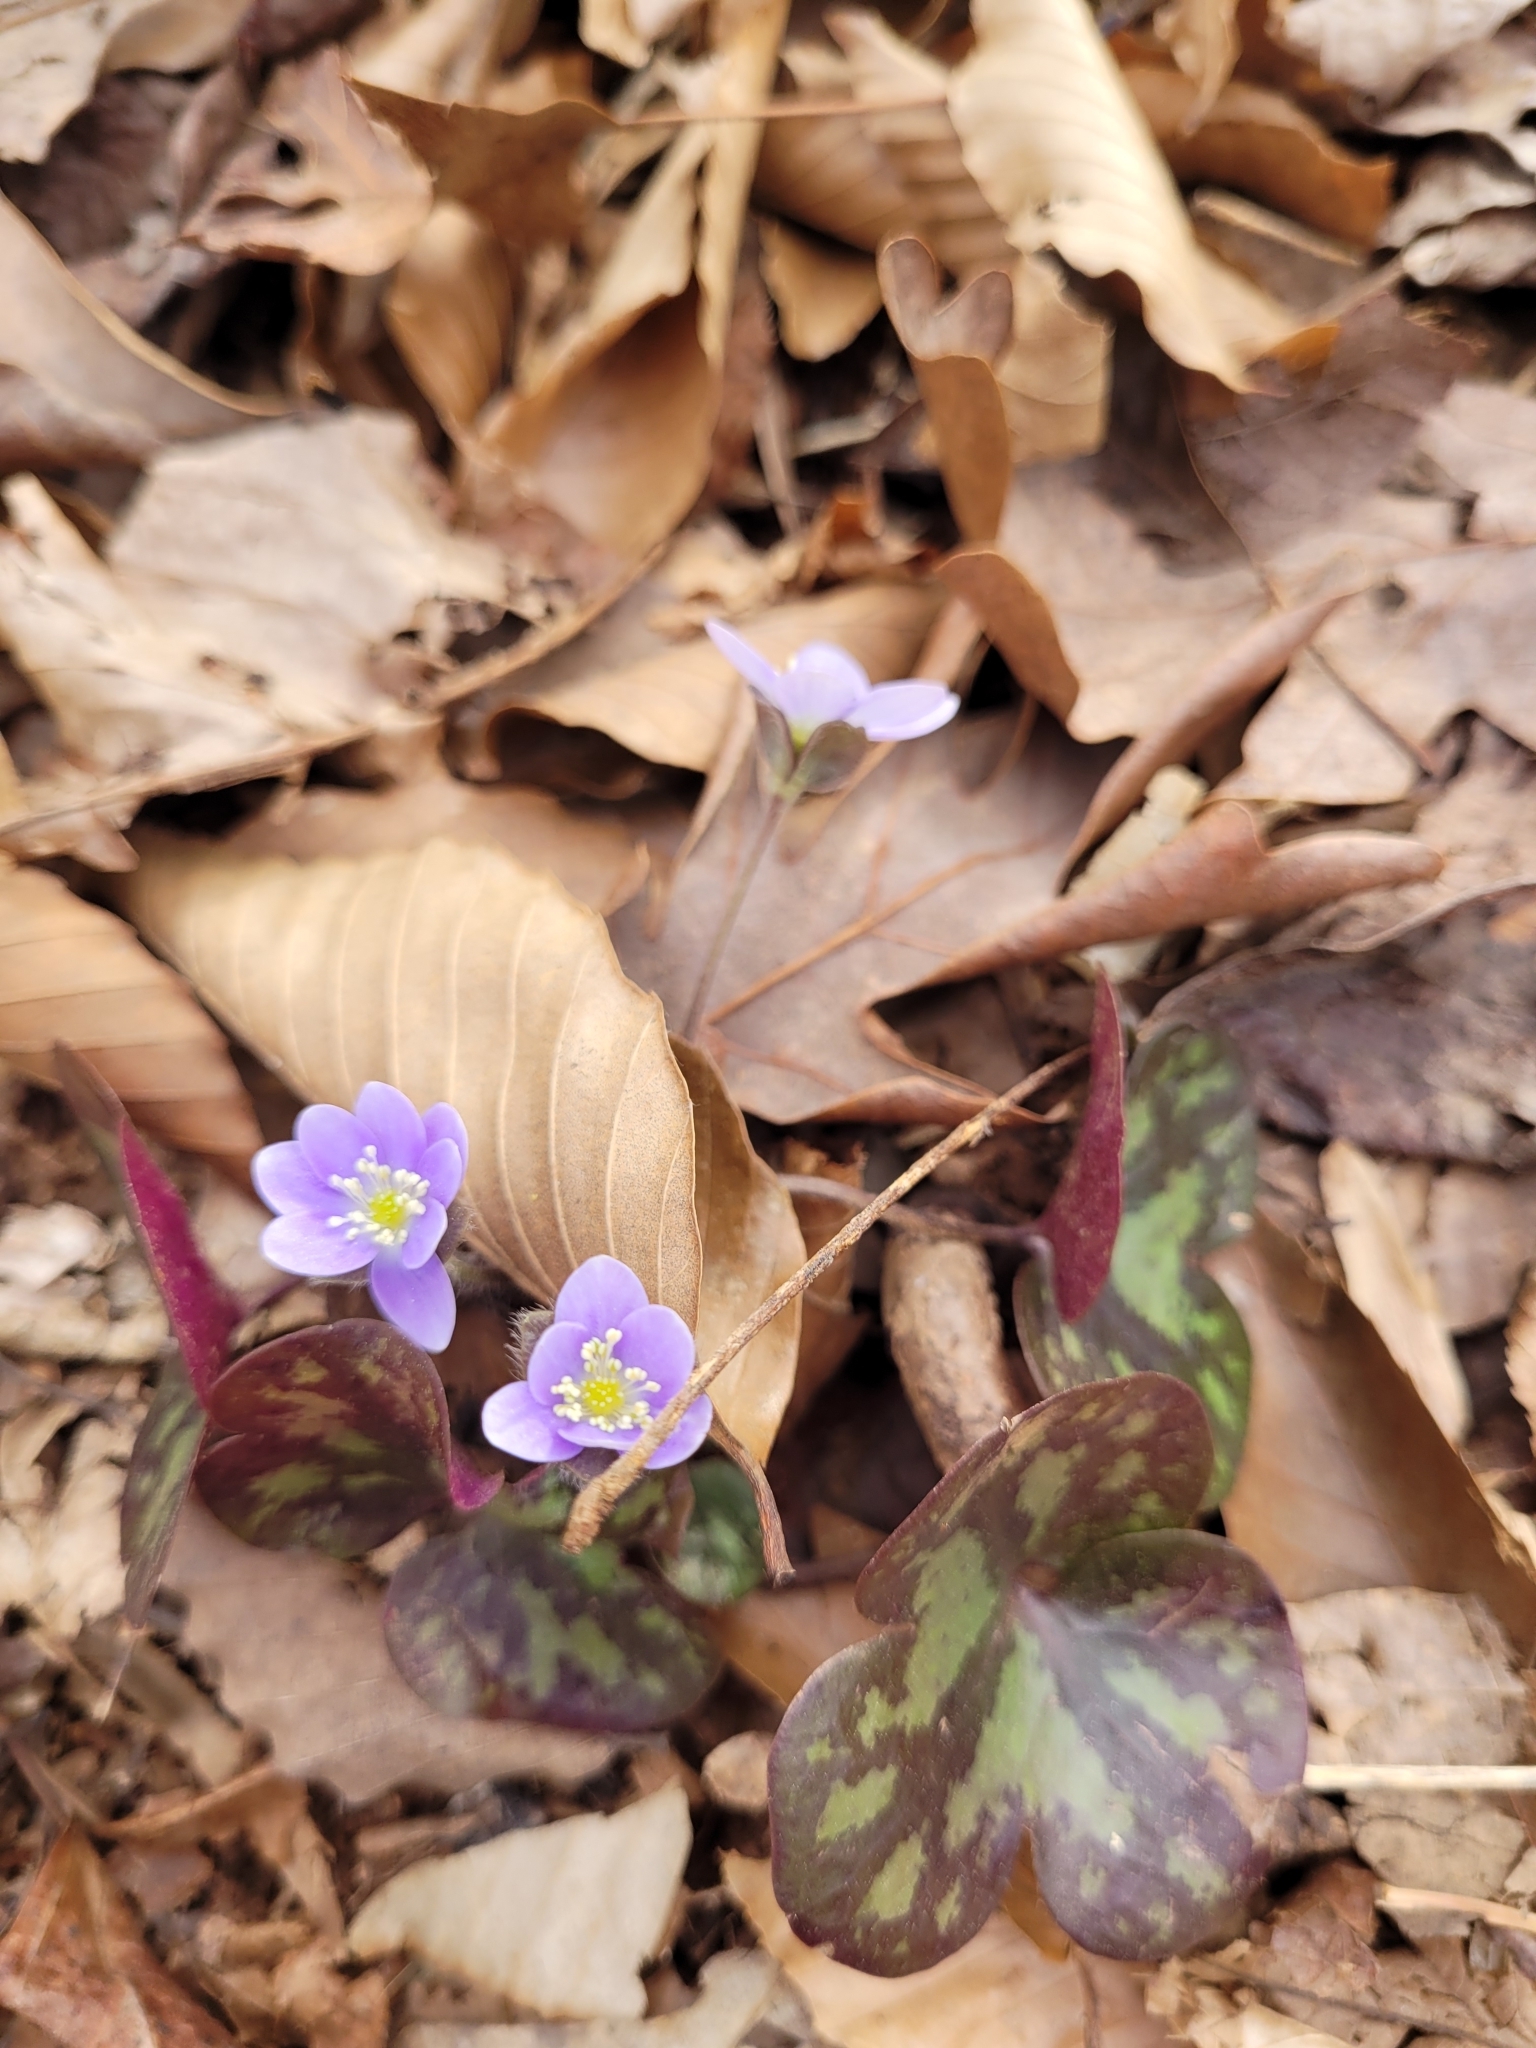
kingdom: Plantae
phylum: Tracheophyta
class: Magnoliopsida
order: Ranunculales
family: Ranunculaceae
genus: Hepatica
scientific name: Hepatica americana
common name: American hepatica
